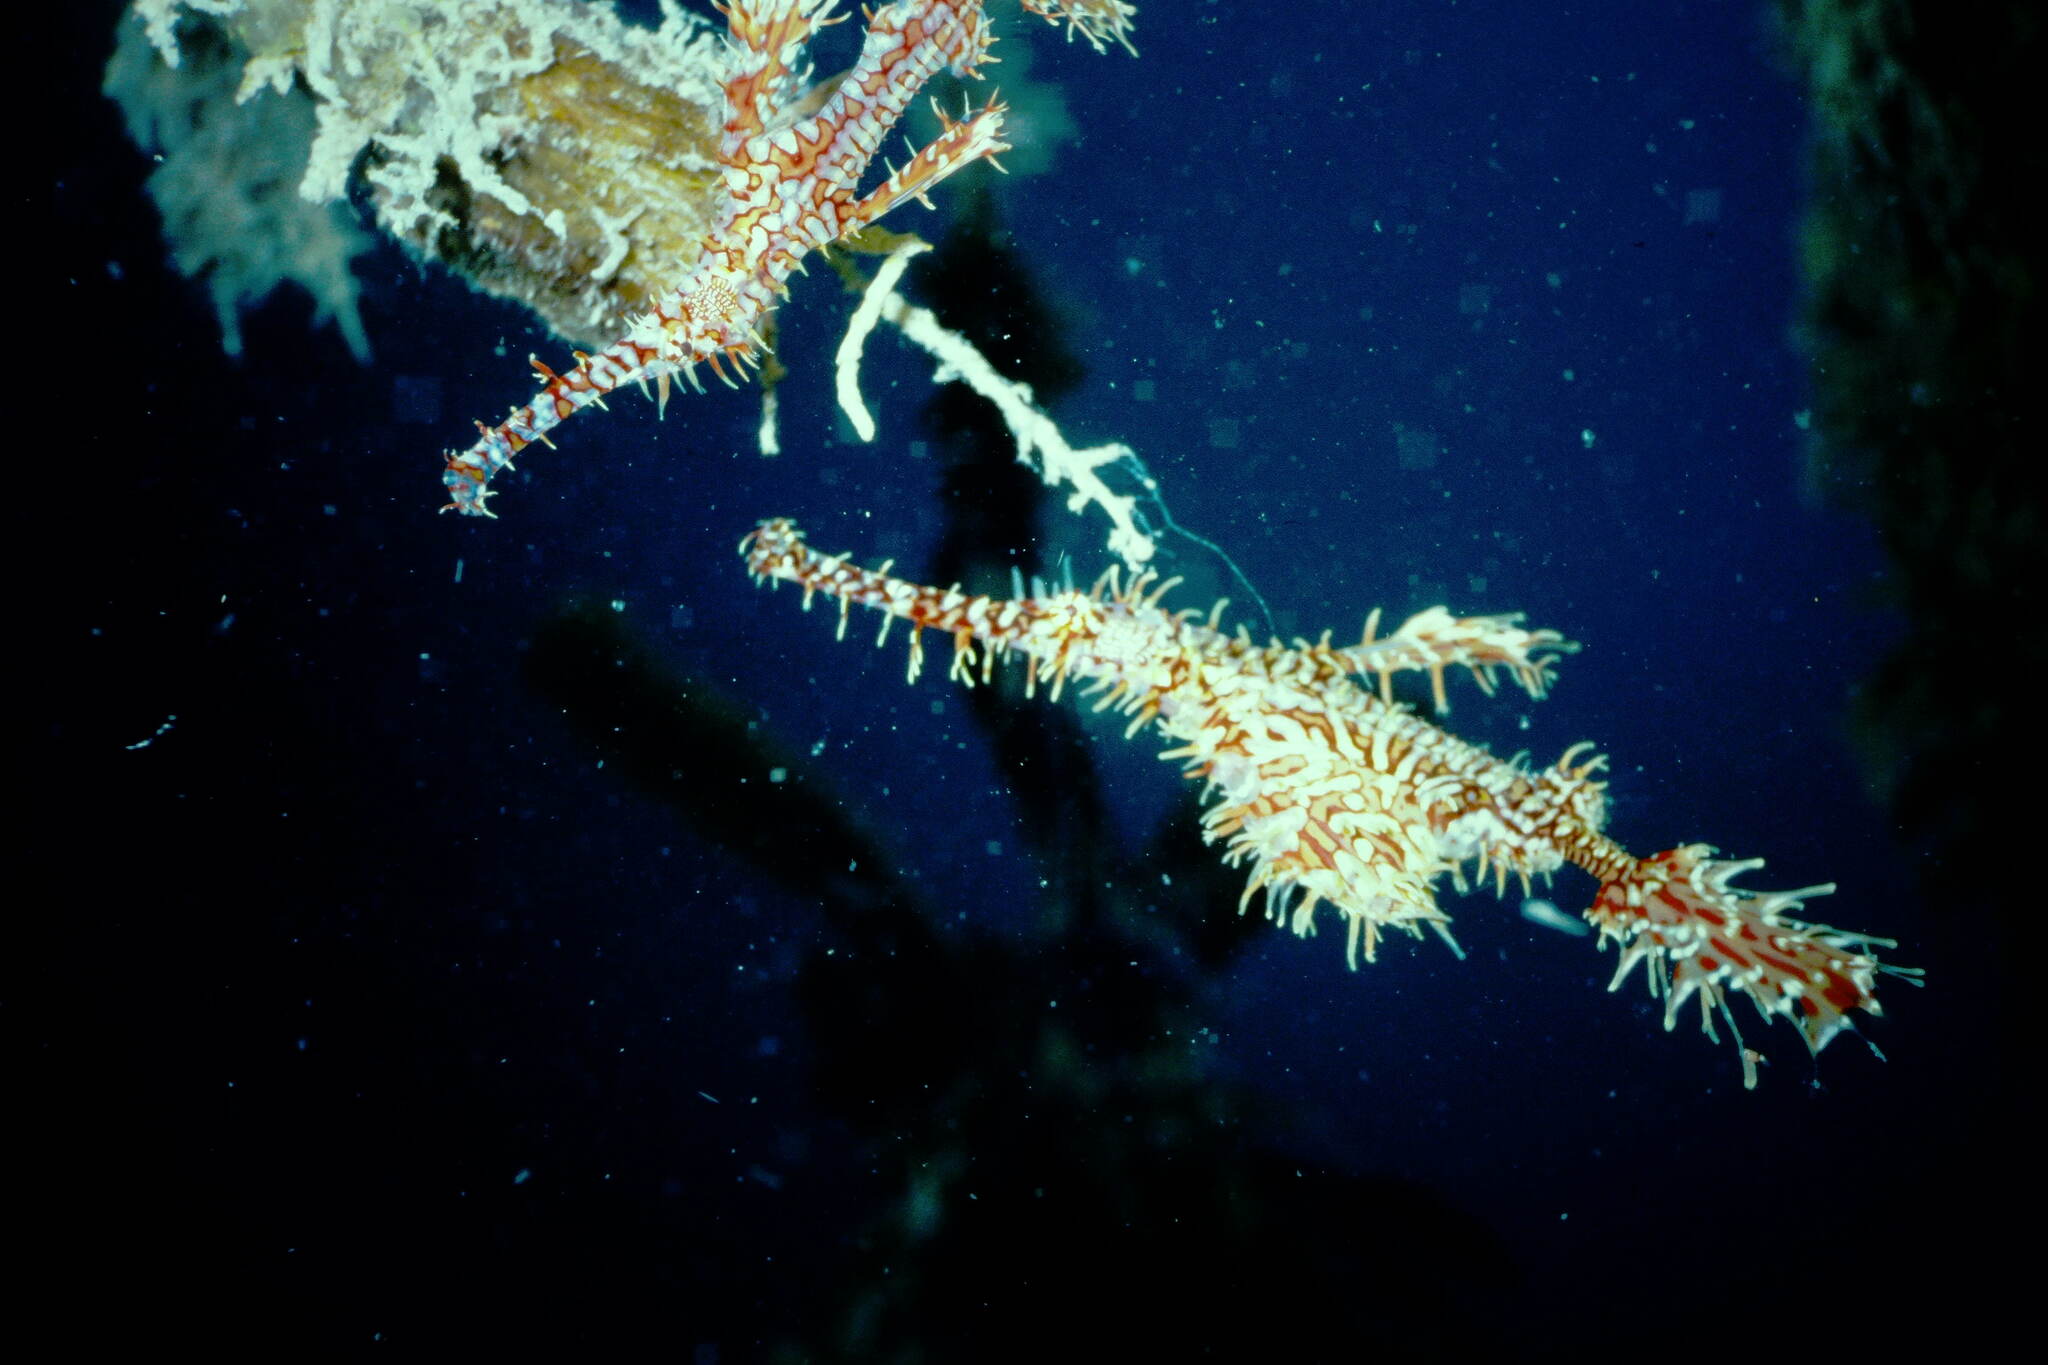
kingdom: Animalia
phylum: Chordata
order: Syngnathiformes
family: Solenostomidae
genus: Solenostomus
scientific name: Solenostomus paradoxus
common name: Ghost pipefish
